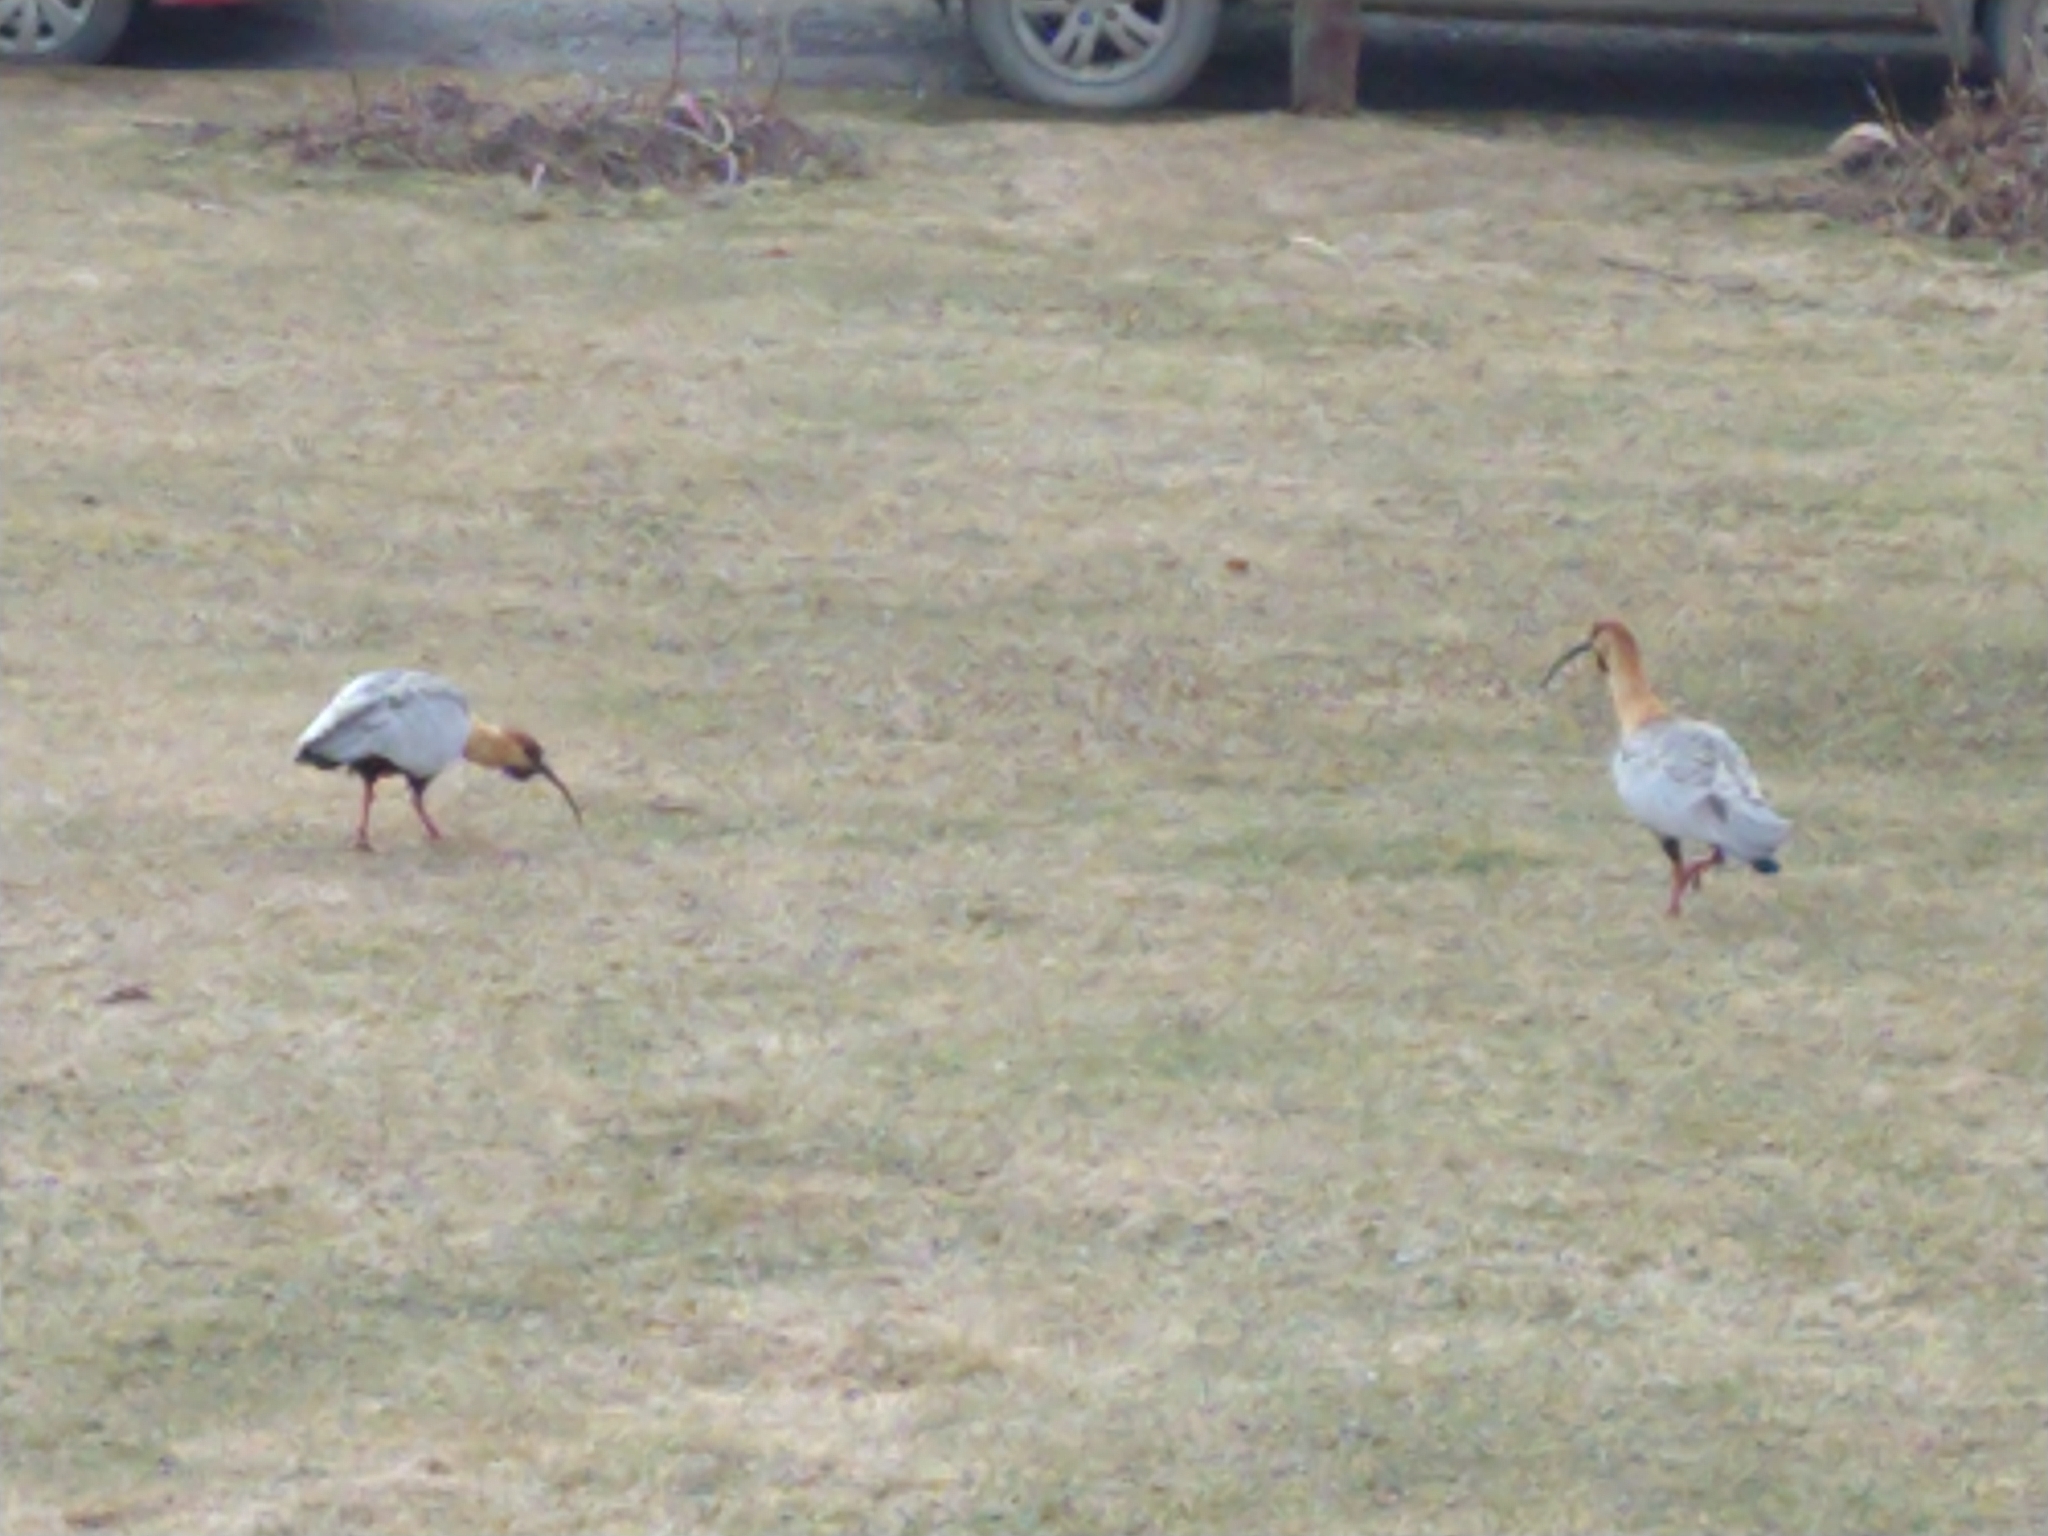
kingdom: Animalia
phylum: Chordata
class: Aves
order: Pelecaniformes
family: Threskiornithidae
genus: Theristicus
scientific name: Theristicus melanopis
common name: Black-faced ibis
